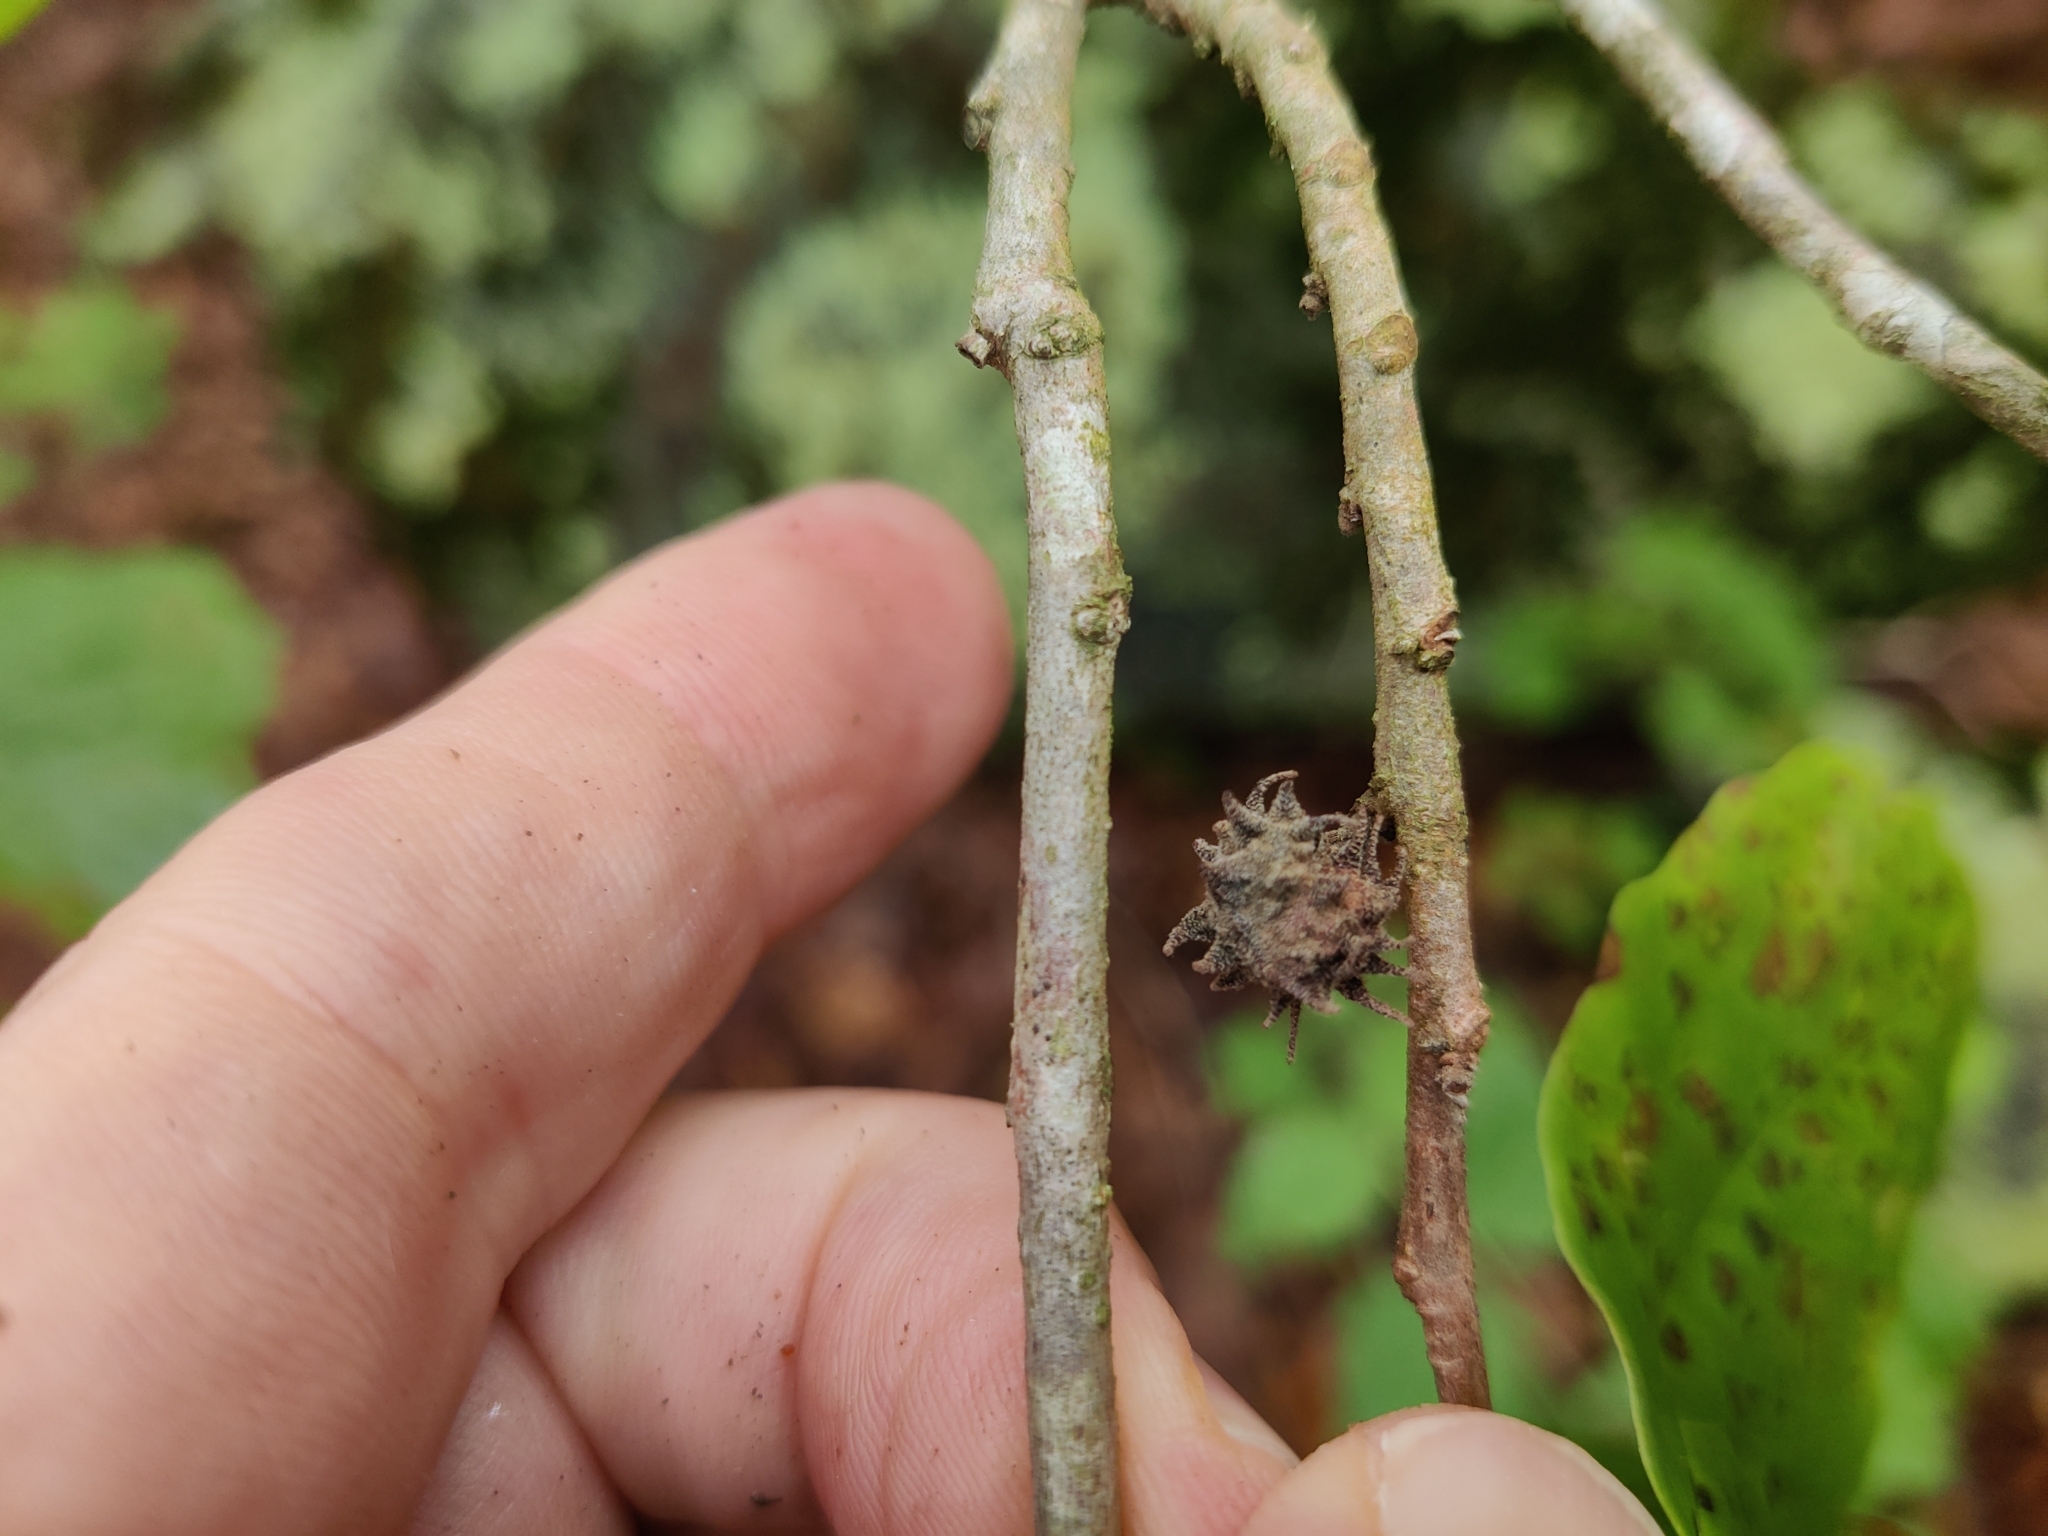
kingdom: Animalia
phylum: Arthropoda
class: Insecta
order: Hemiptera
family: Aphididae
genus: Hamamelistes
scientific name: Hamamelistes spinosus
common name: Witch hazel gall aphid
